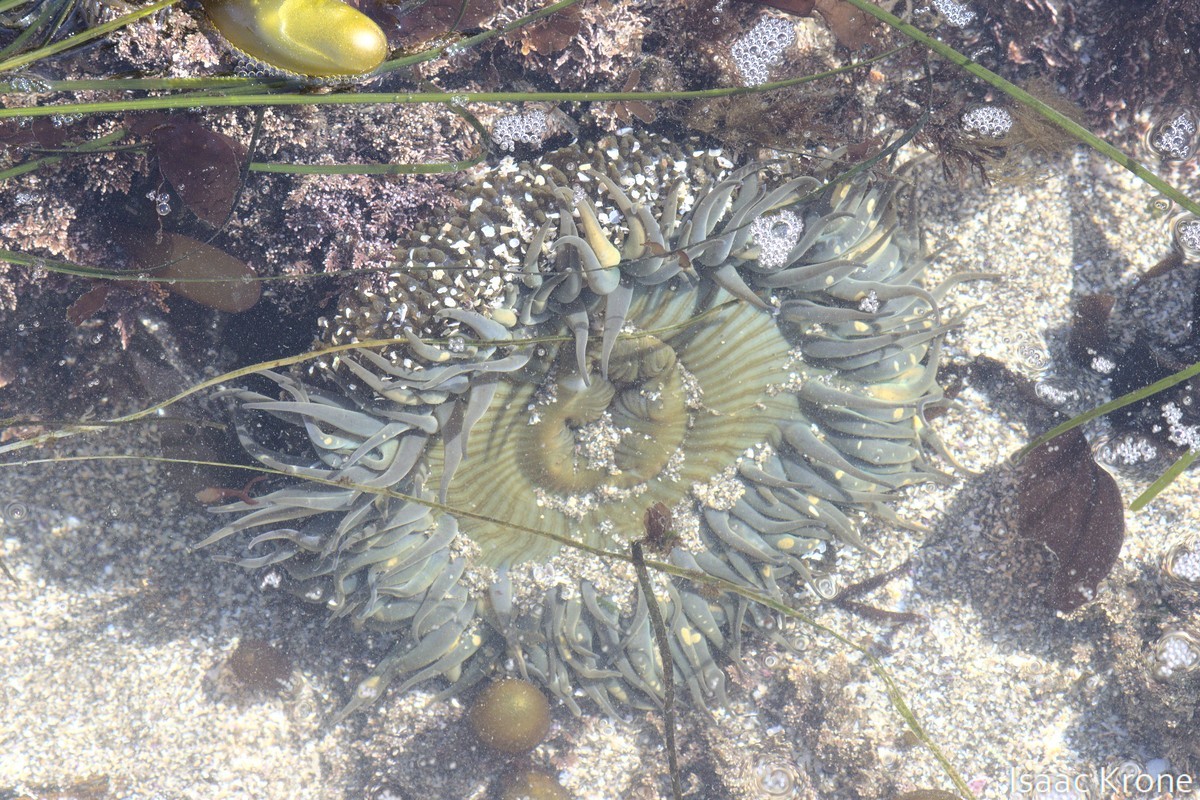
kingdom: Animalia
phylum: Cnidaria
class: Anthozoa
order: Actiniaria
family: Actiniidae
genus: Anthopleura
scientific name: Anthopleura sola
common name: Sun anemone
